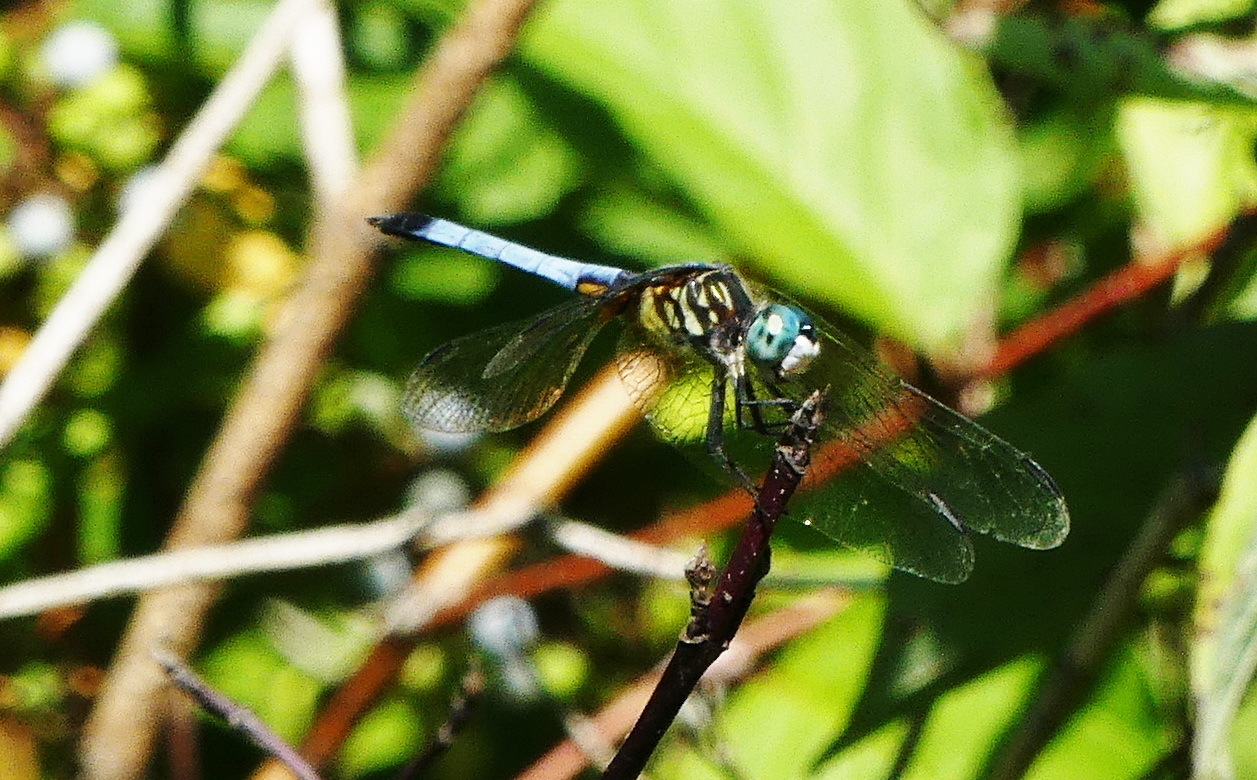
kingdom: Animalia
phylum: Arthropoda
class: Insecta
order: Odonata
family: Libellulidae
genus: Pachydiplax
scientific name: Pachydiplax longipennis
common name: Blue dasher
